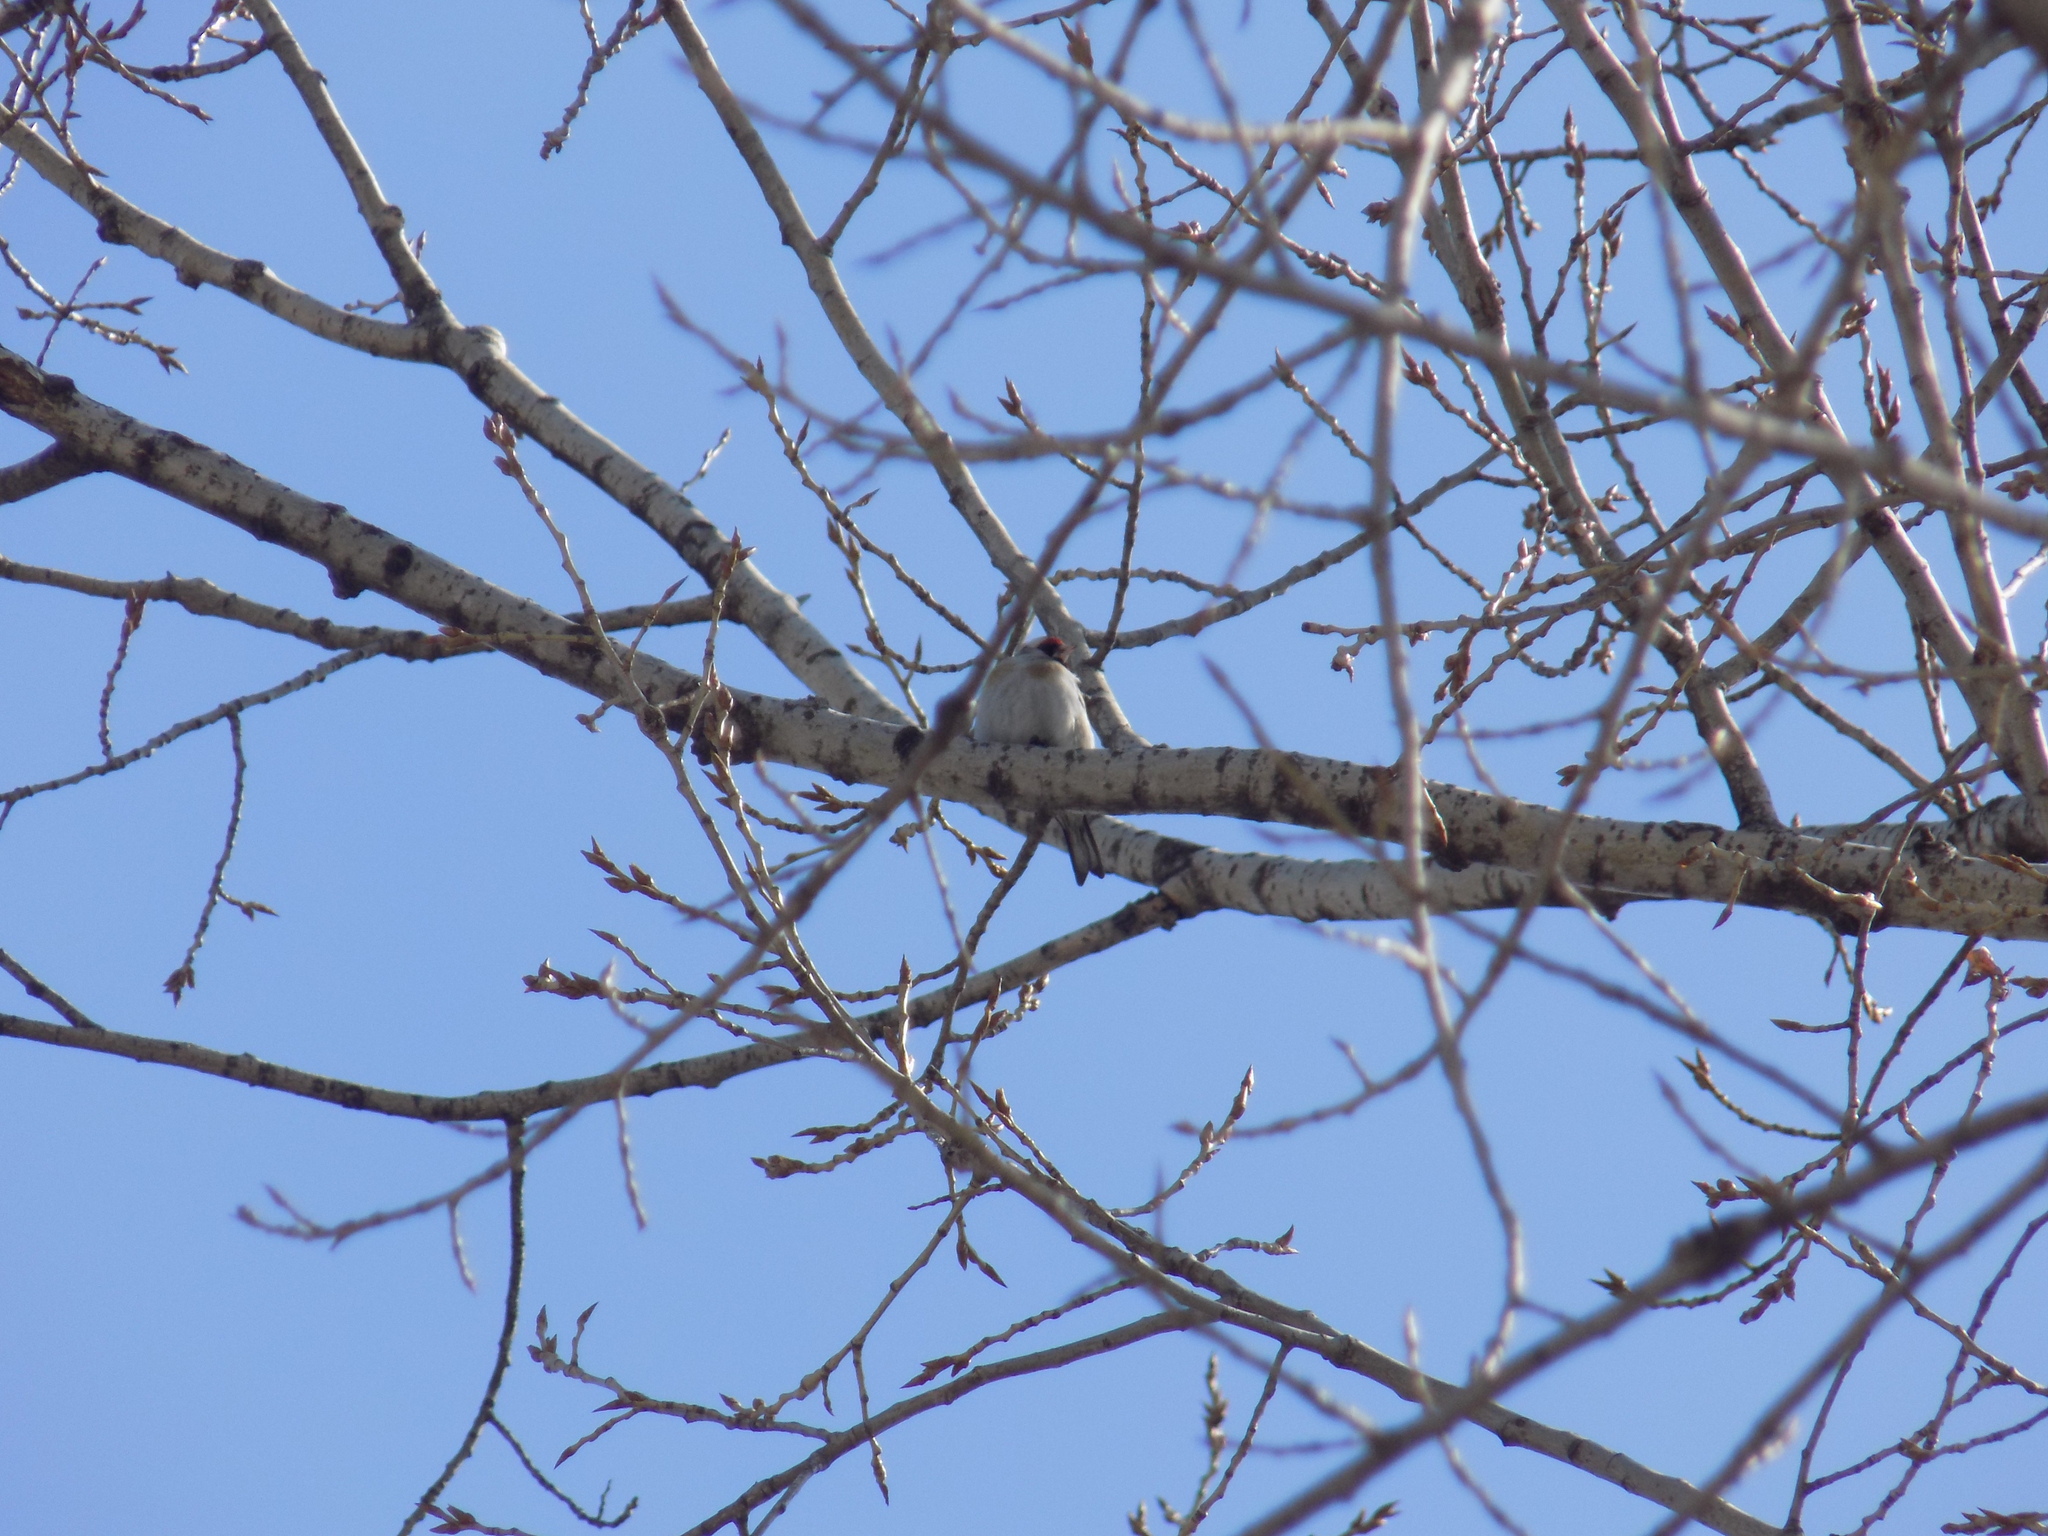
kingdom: Animalia
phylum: Chordata
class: Aves
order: Passeriformes
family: Fringillidae
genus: Carduelis
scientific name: Carduelis carduelis
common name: European goldfinch
